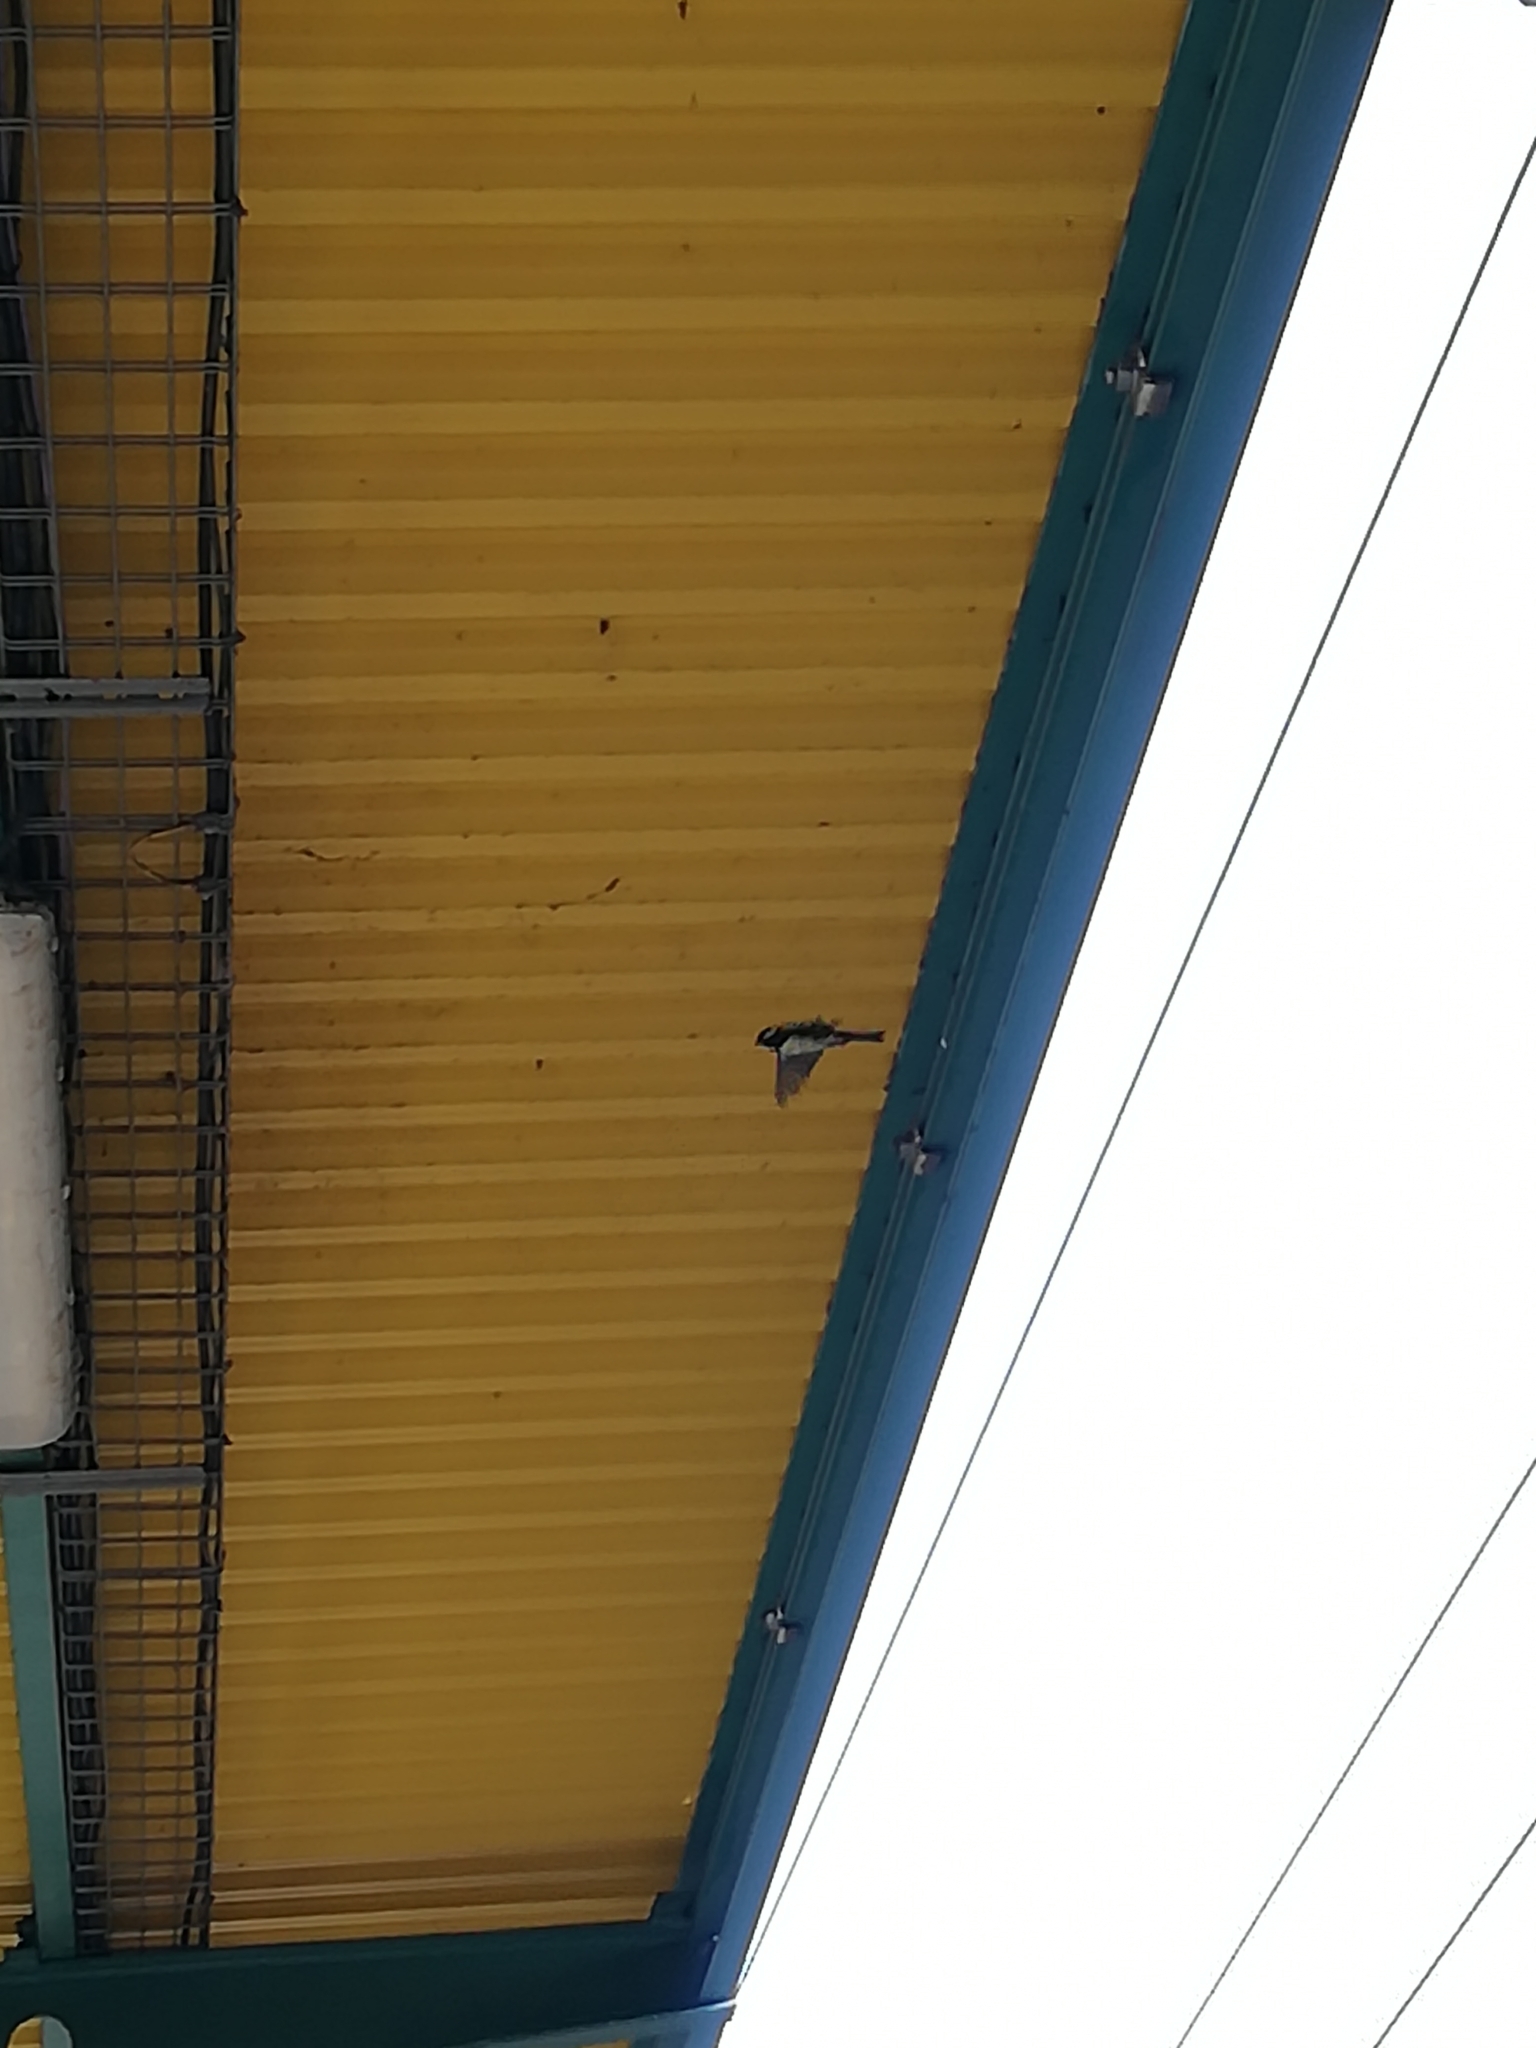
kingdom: Animalia
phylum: Chordata
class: Aves
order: Passeriformes
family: Paridae
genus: Parus
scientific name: Parus major
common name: Great tit
